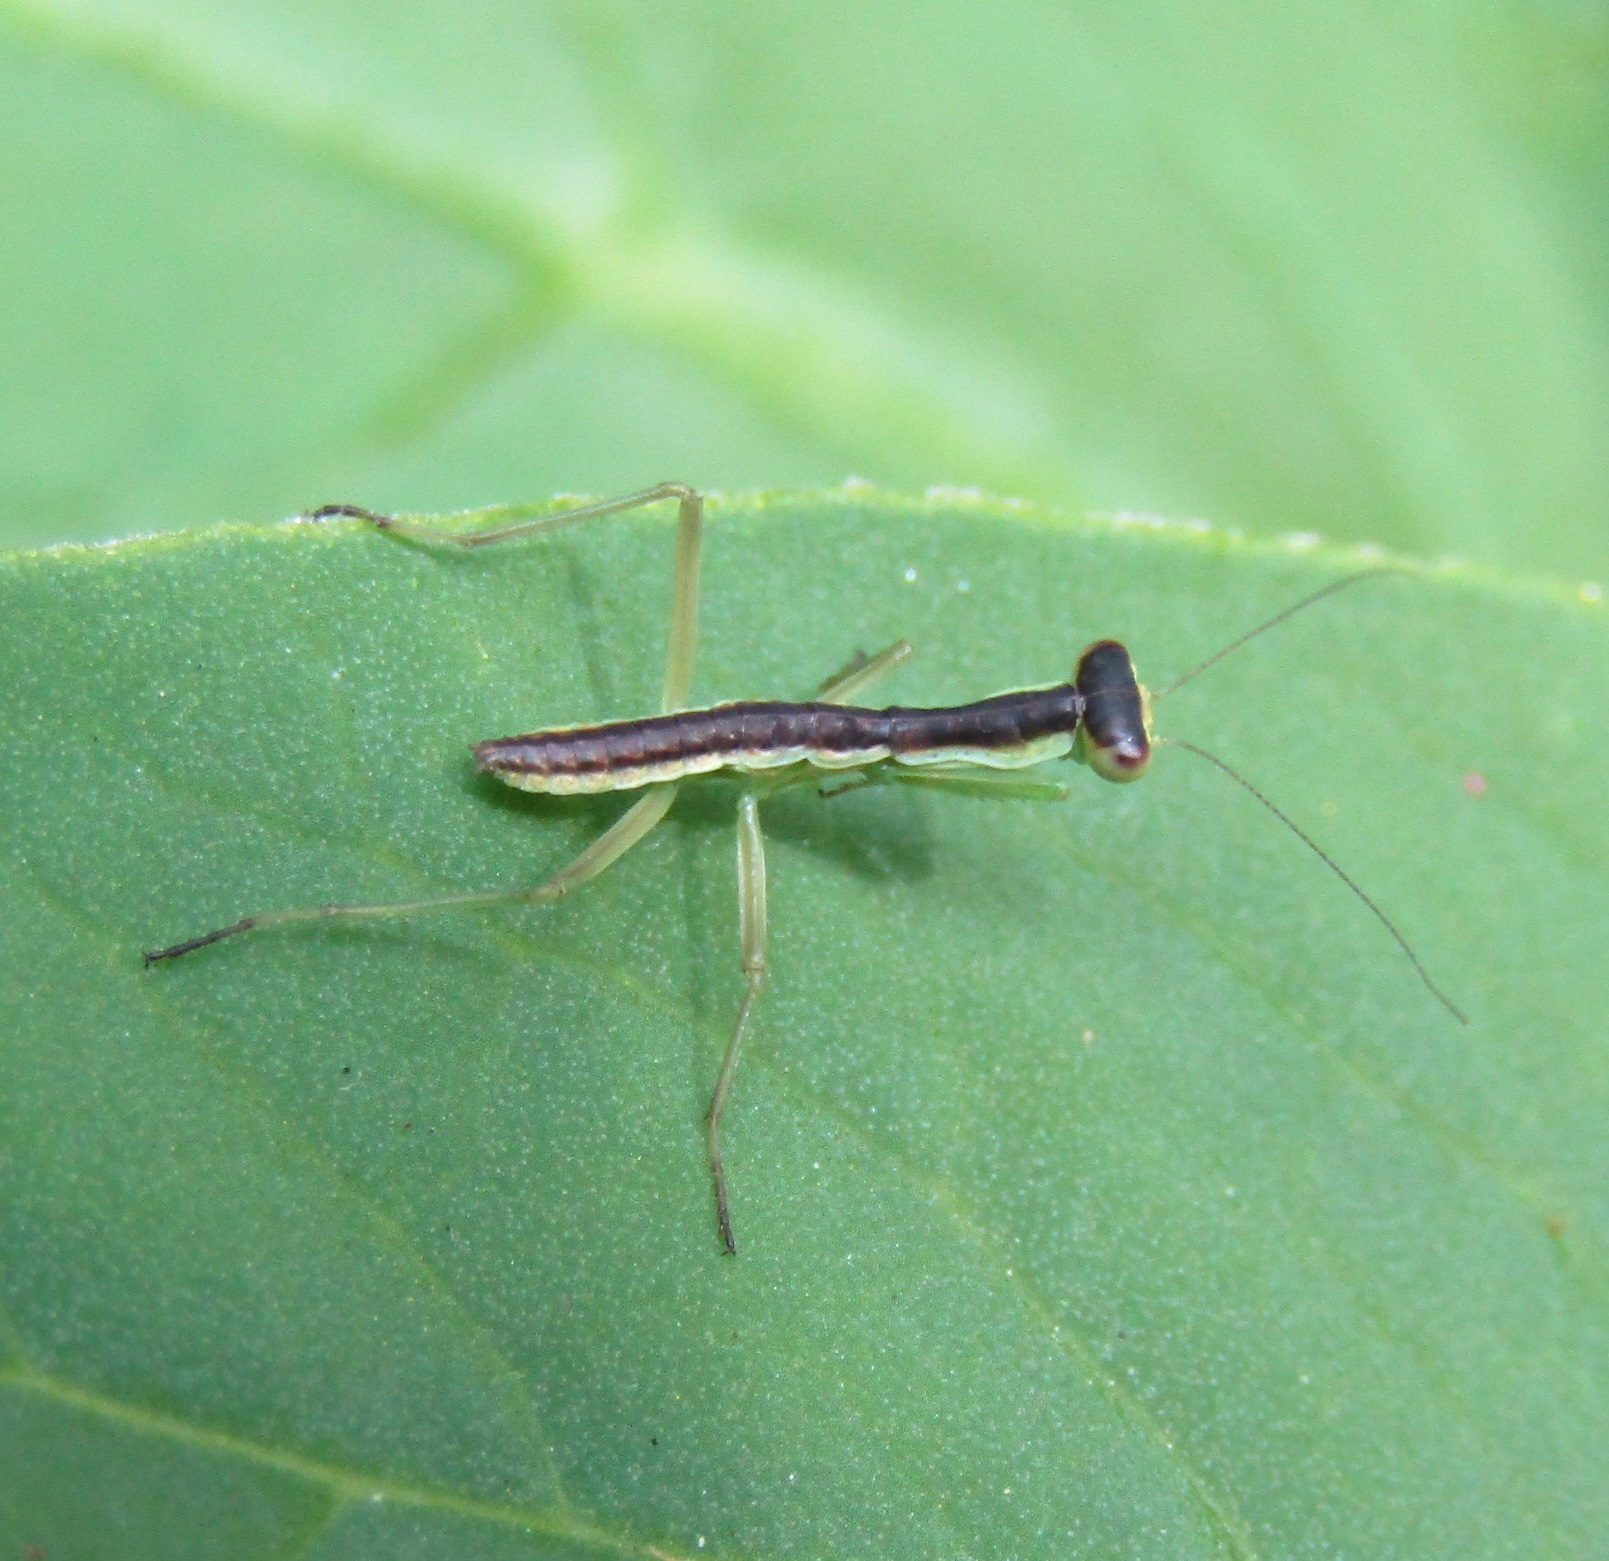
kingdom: Animalia
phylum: Arthropoda
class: Insecta
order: Mantodea
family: Mantidae
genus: Orthodera
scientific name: Orthodera novaezealandiae
